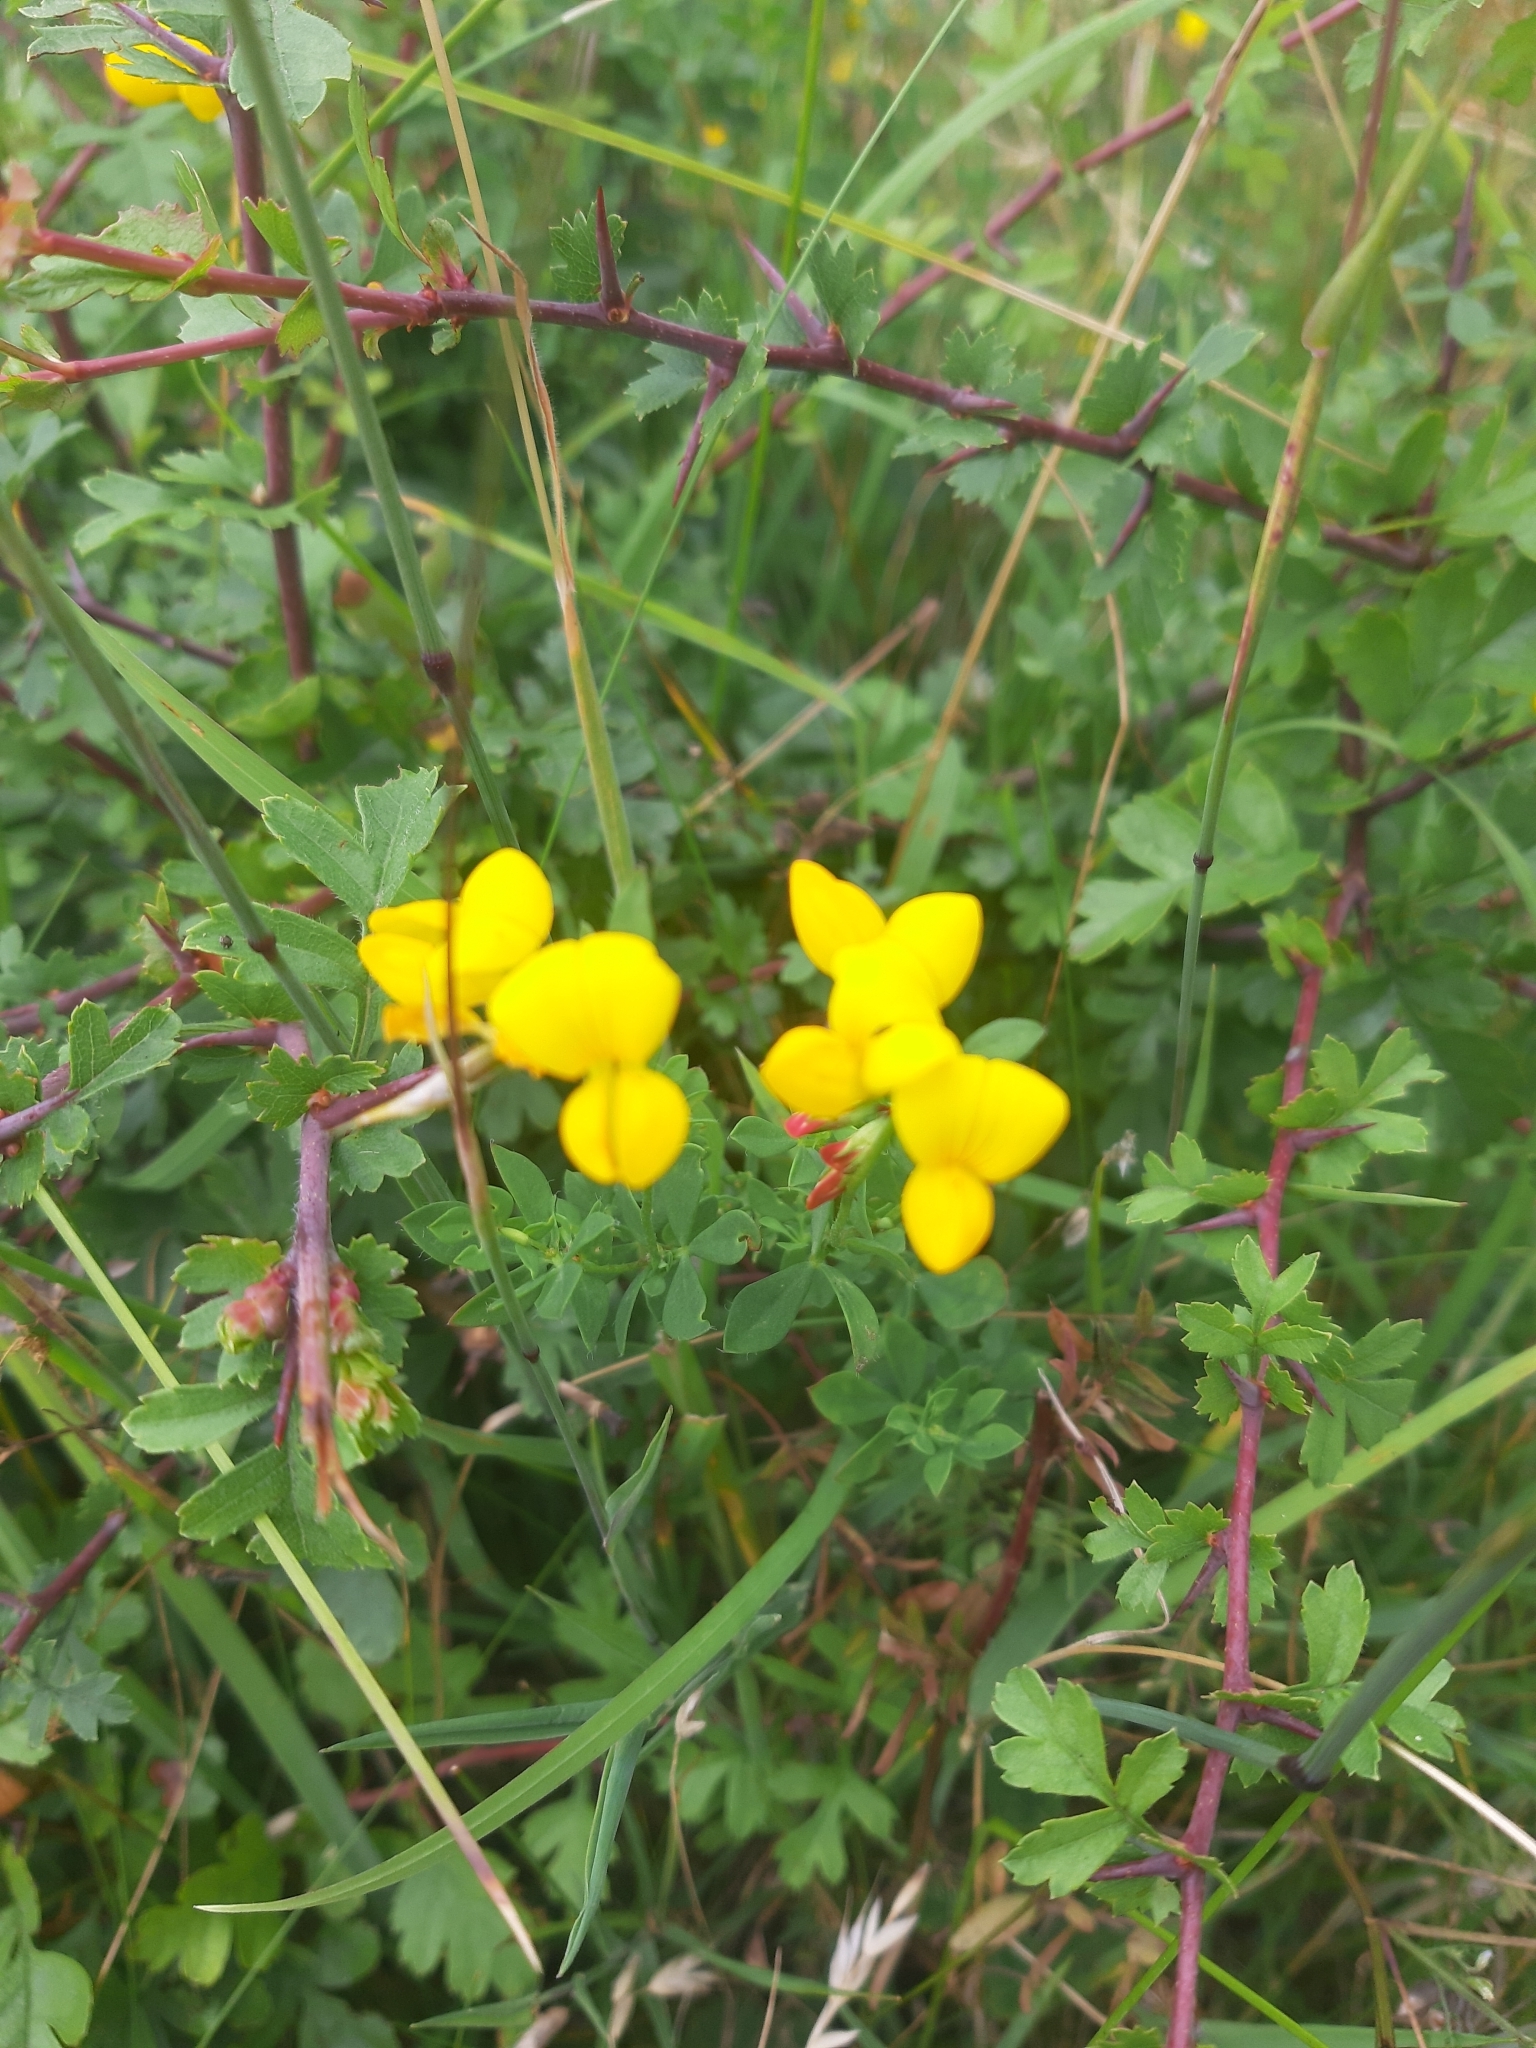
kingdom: Plantae
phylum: Tracheophyta
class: Magnoliopsida
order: Fabales
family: Fabaceae
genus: Lotus
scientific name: Lotus corniculatus
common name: Common bird's-foot-trefoil
